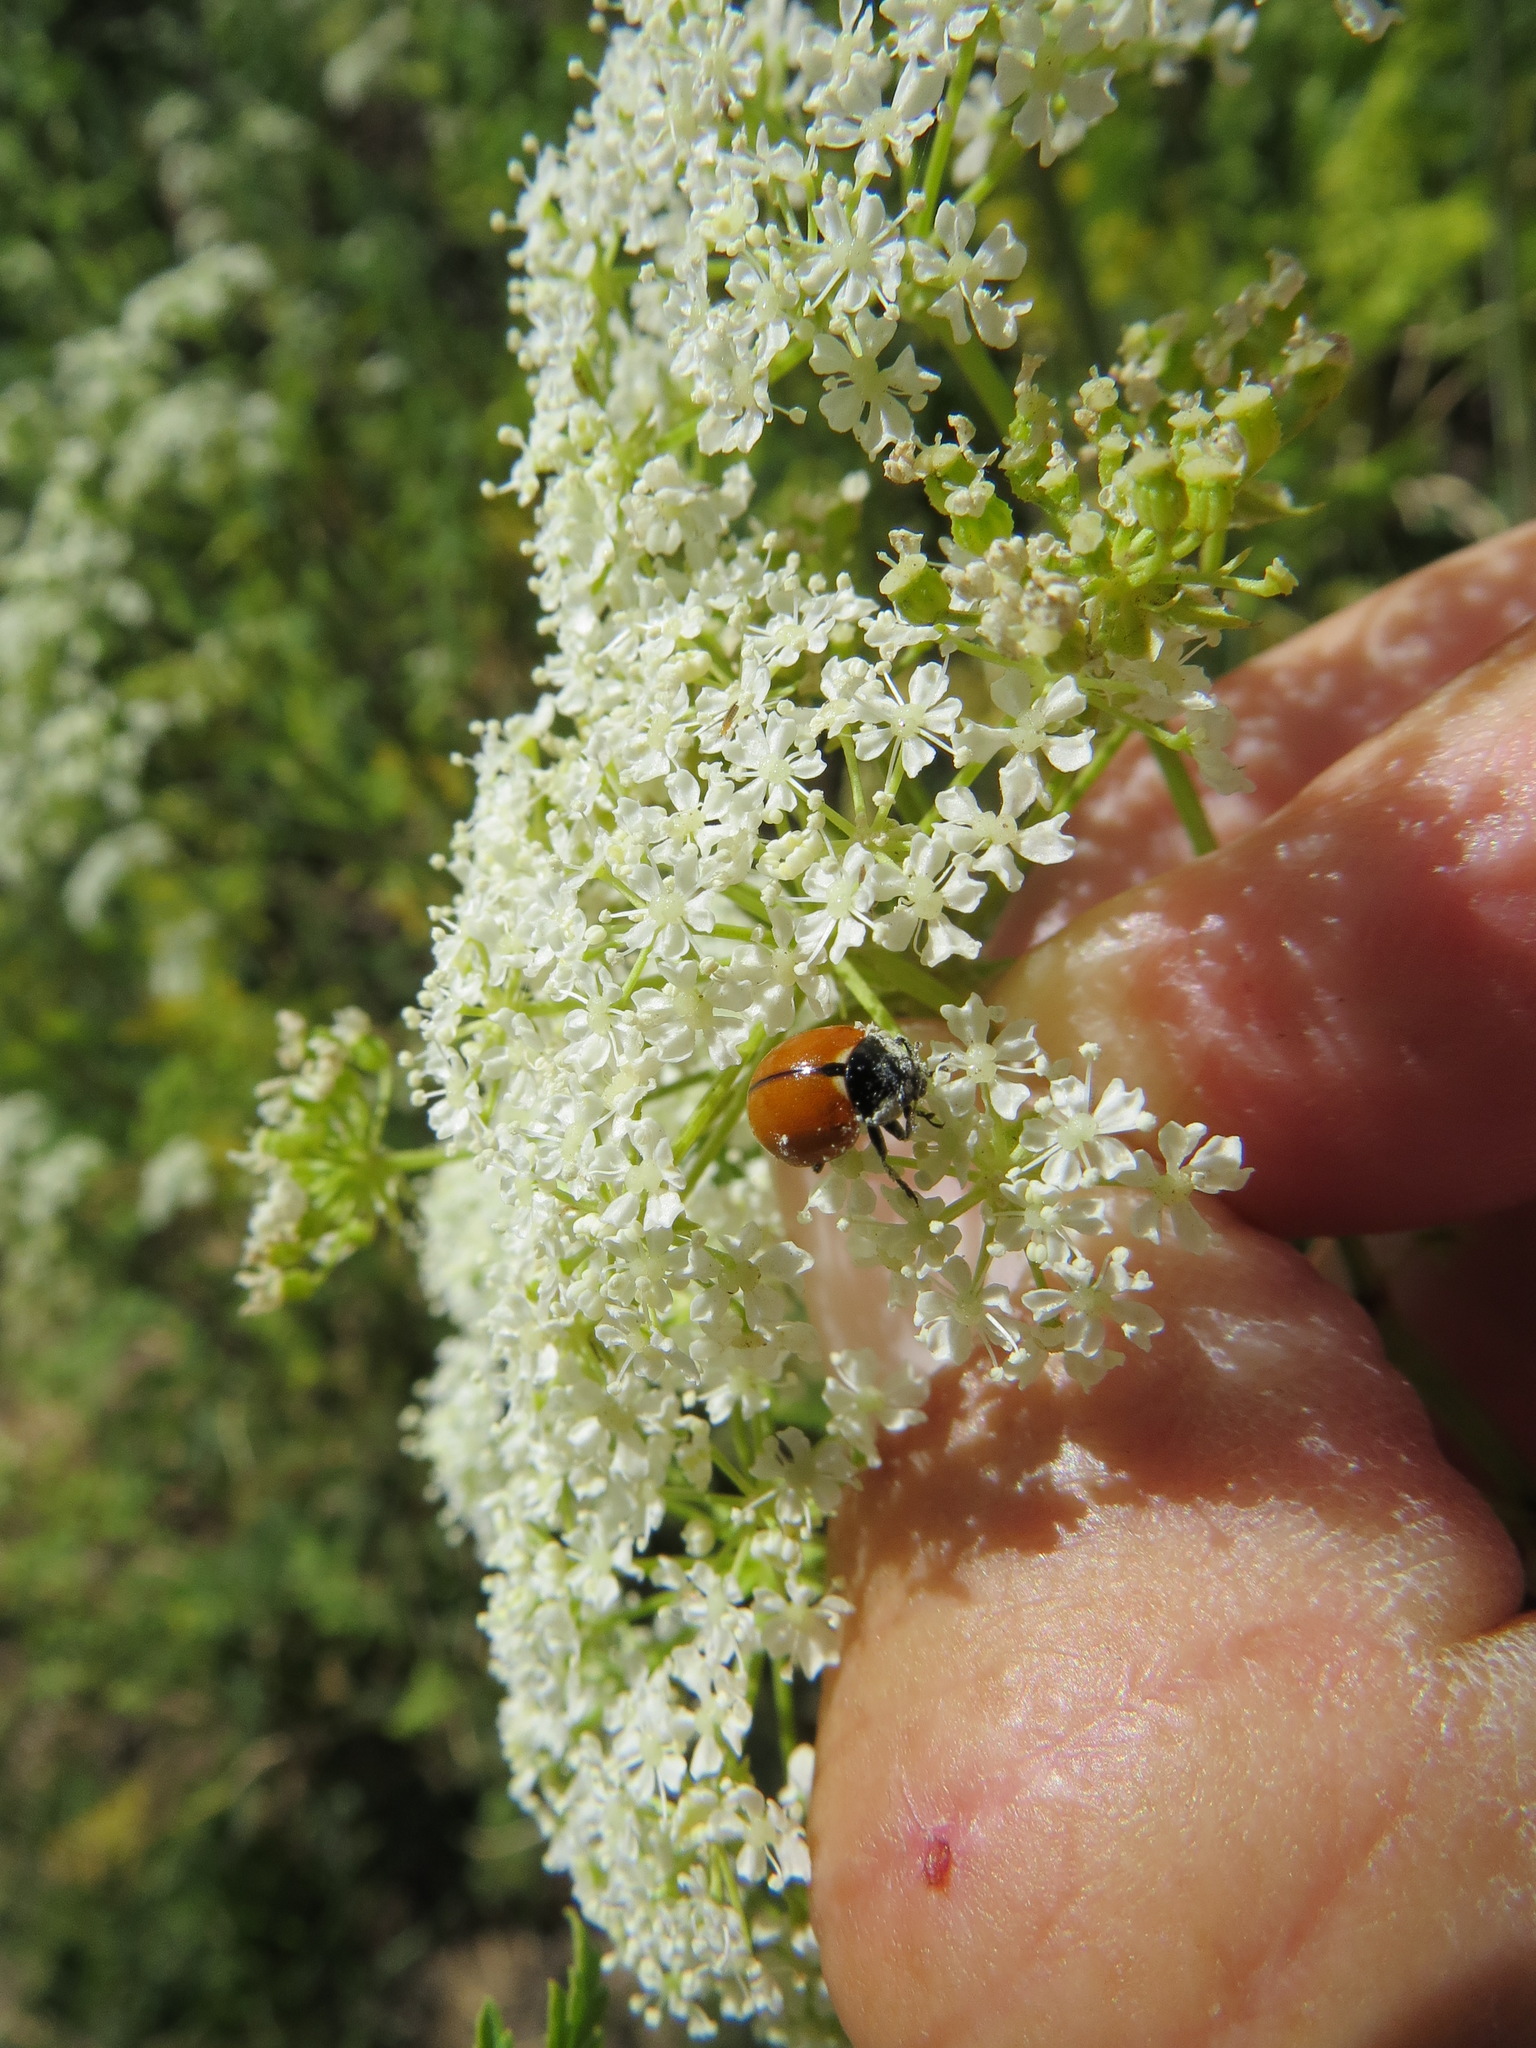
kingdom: Animalia
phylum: Arthropoda
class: Insecta
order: Coleoptera
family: Coccinellidae
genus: Coccinella
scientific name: Coccinella californica
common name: Lady beetle
